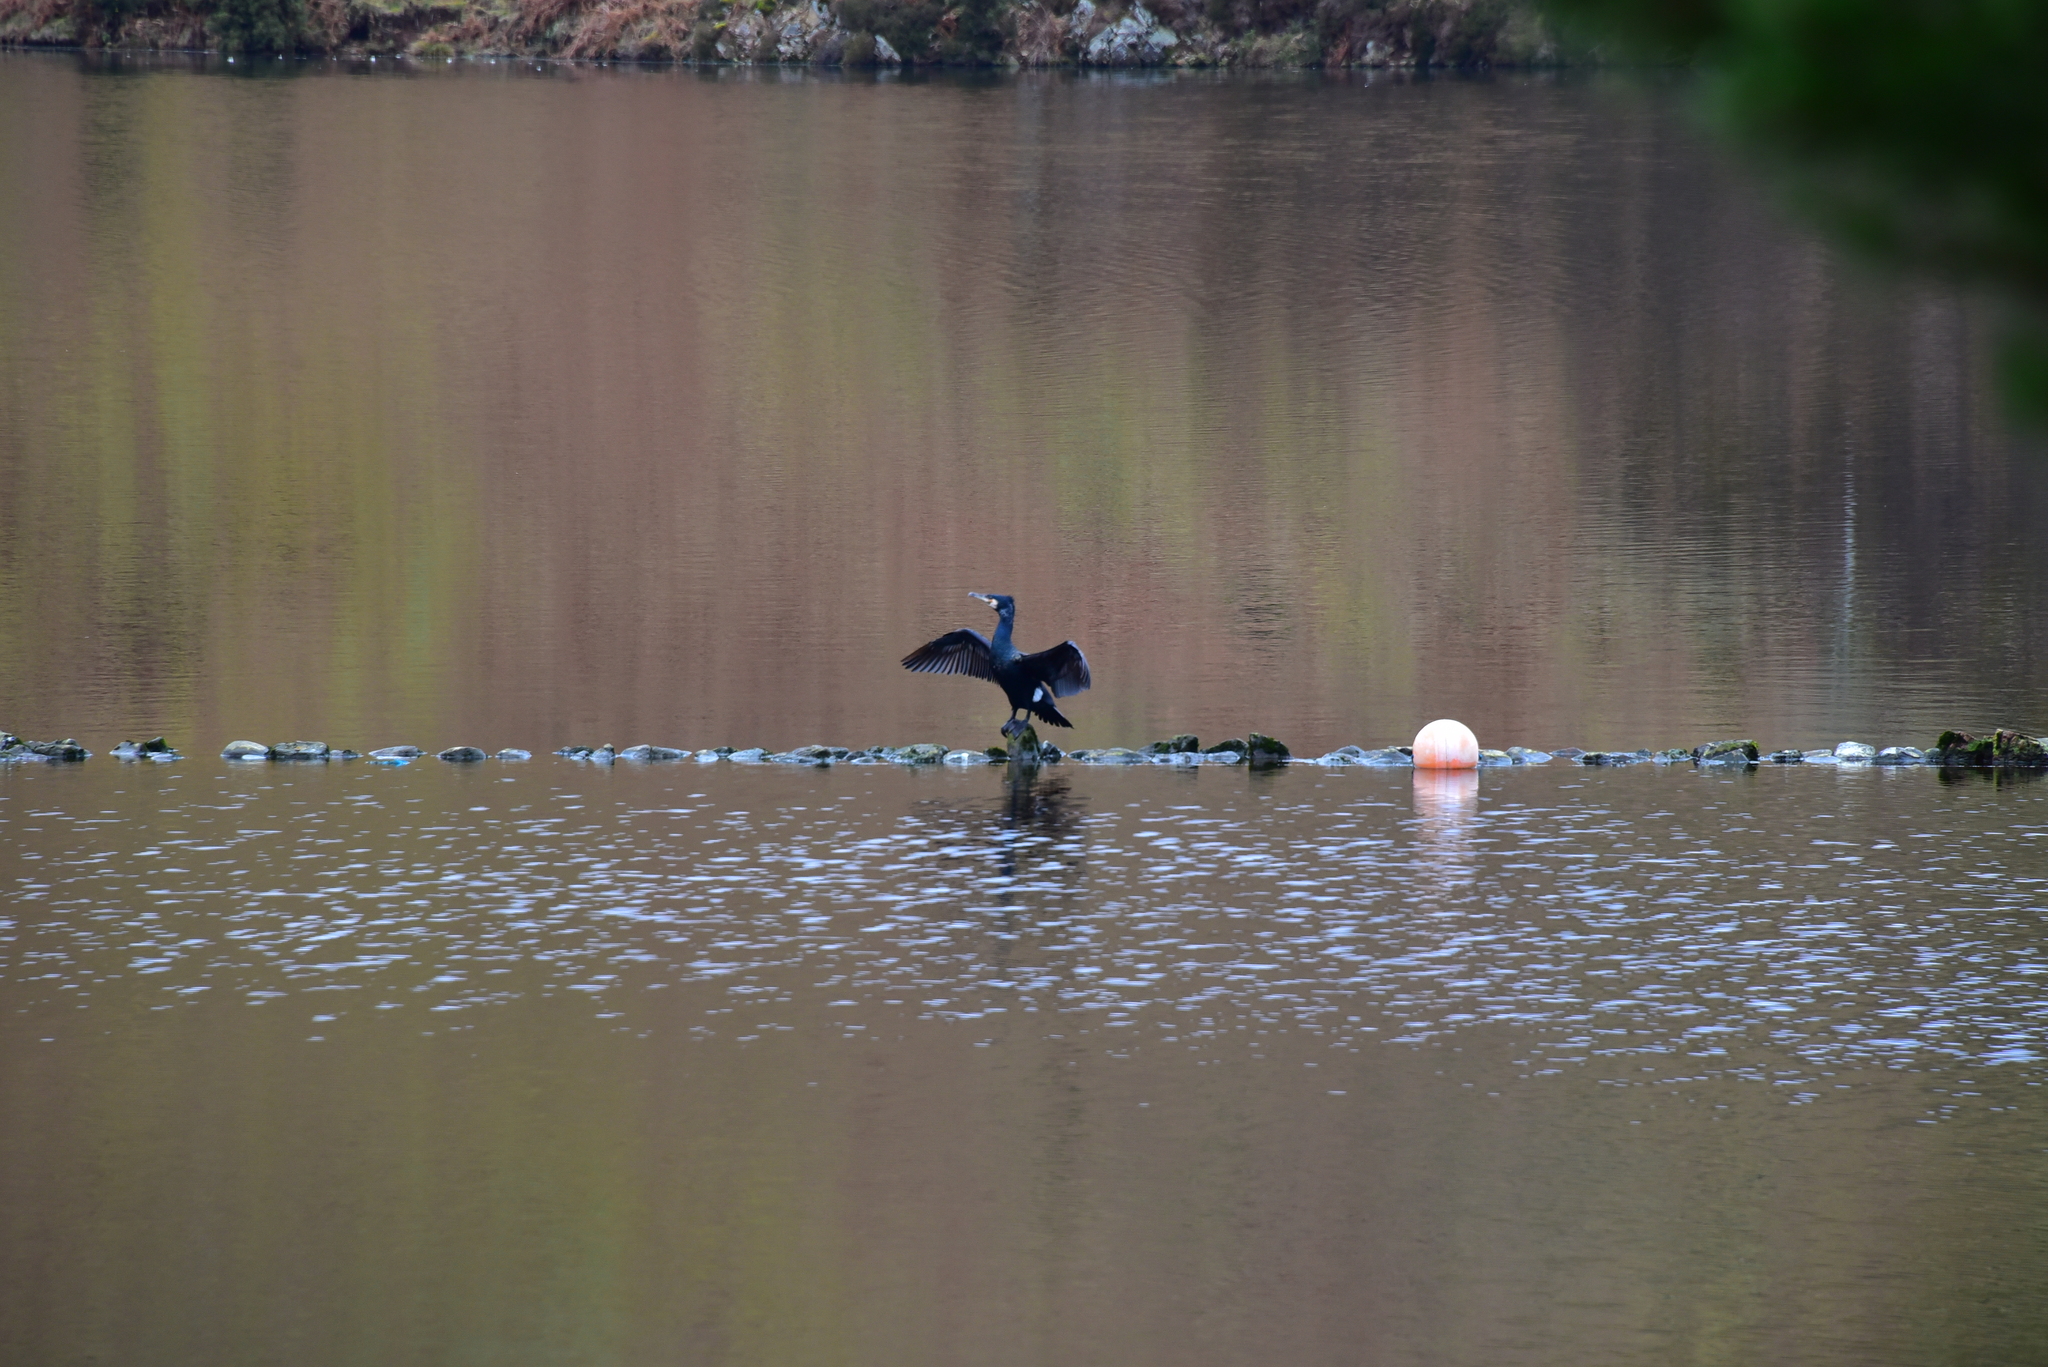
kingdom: Animalia
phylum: Chordata
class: Aves
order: Suliformes
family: Phalacrocoracidae
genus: Phalacrocorax
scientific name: Phalacrocorax carbo
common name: Great cormorant
